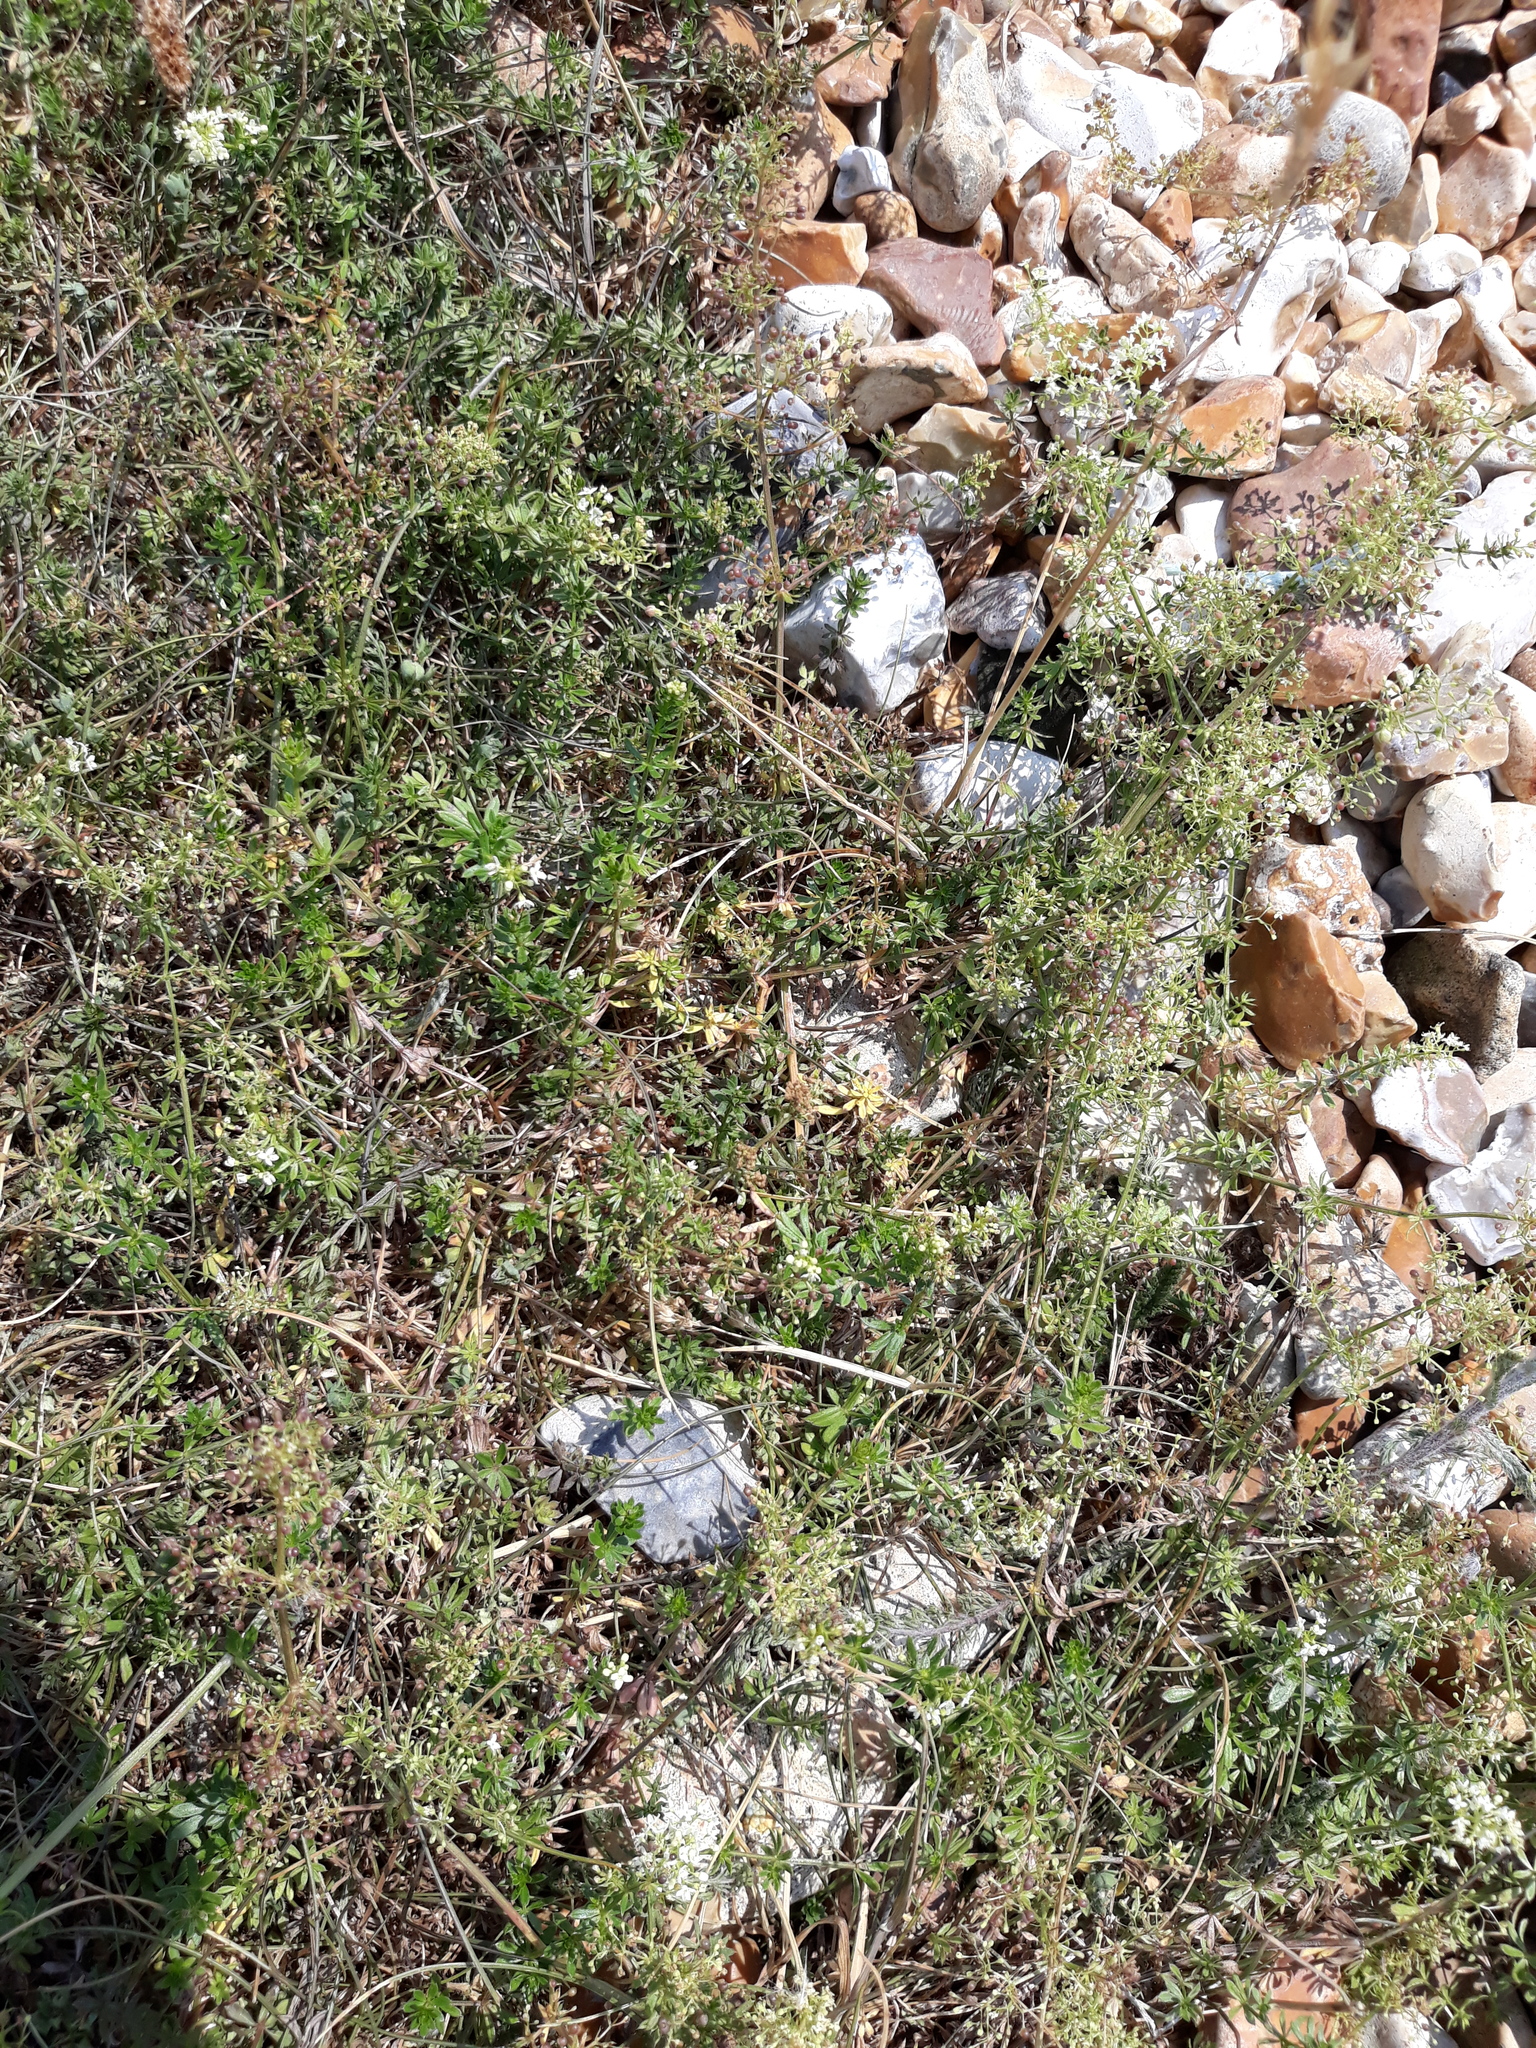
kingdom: Plantae
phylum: Tracheophyta
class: Magnoliopsida
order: Gentianales
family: Rubiaceae
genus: Galium
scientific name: Galium mollugo
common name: Hedge bedstraw
